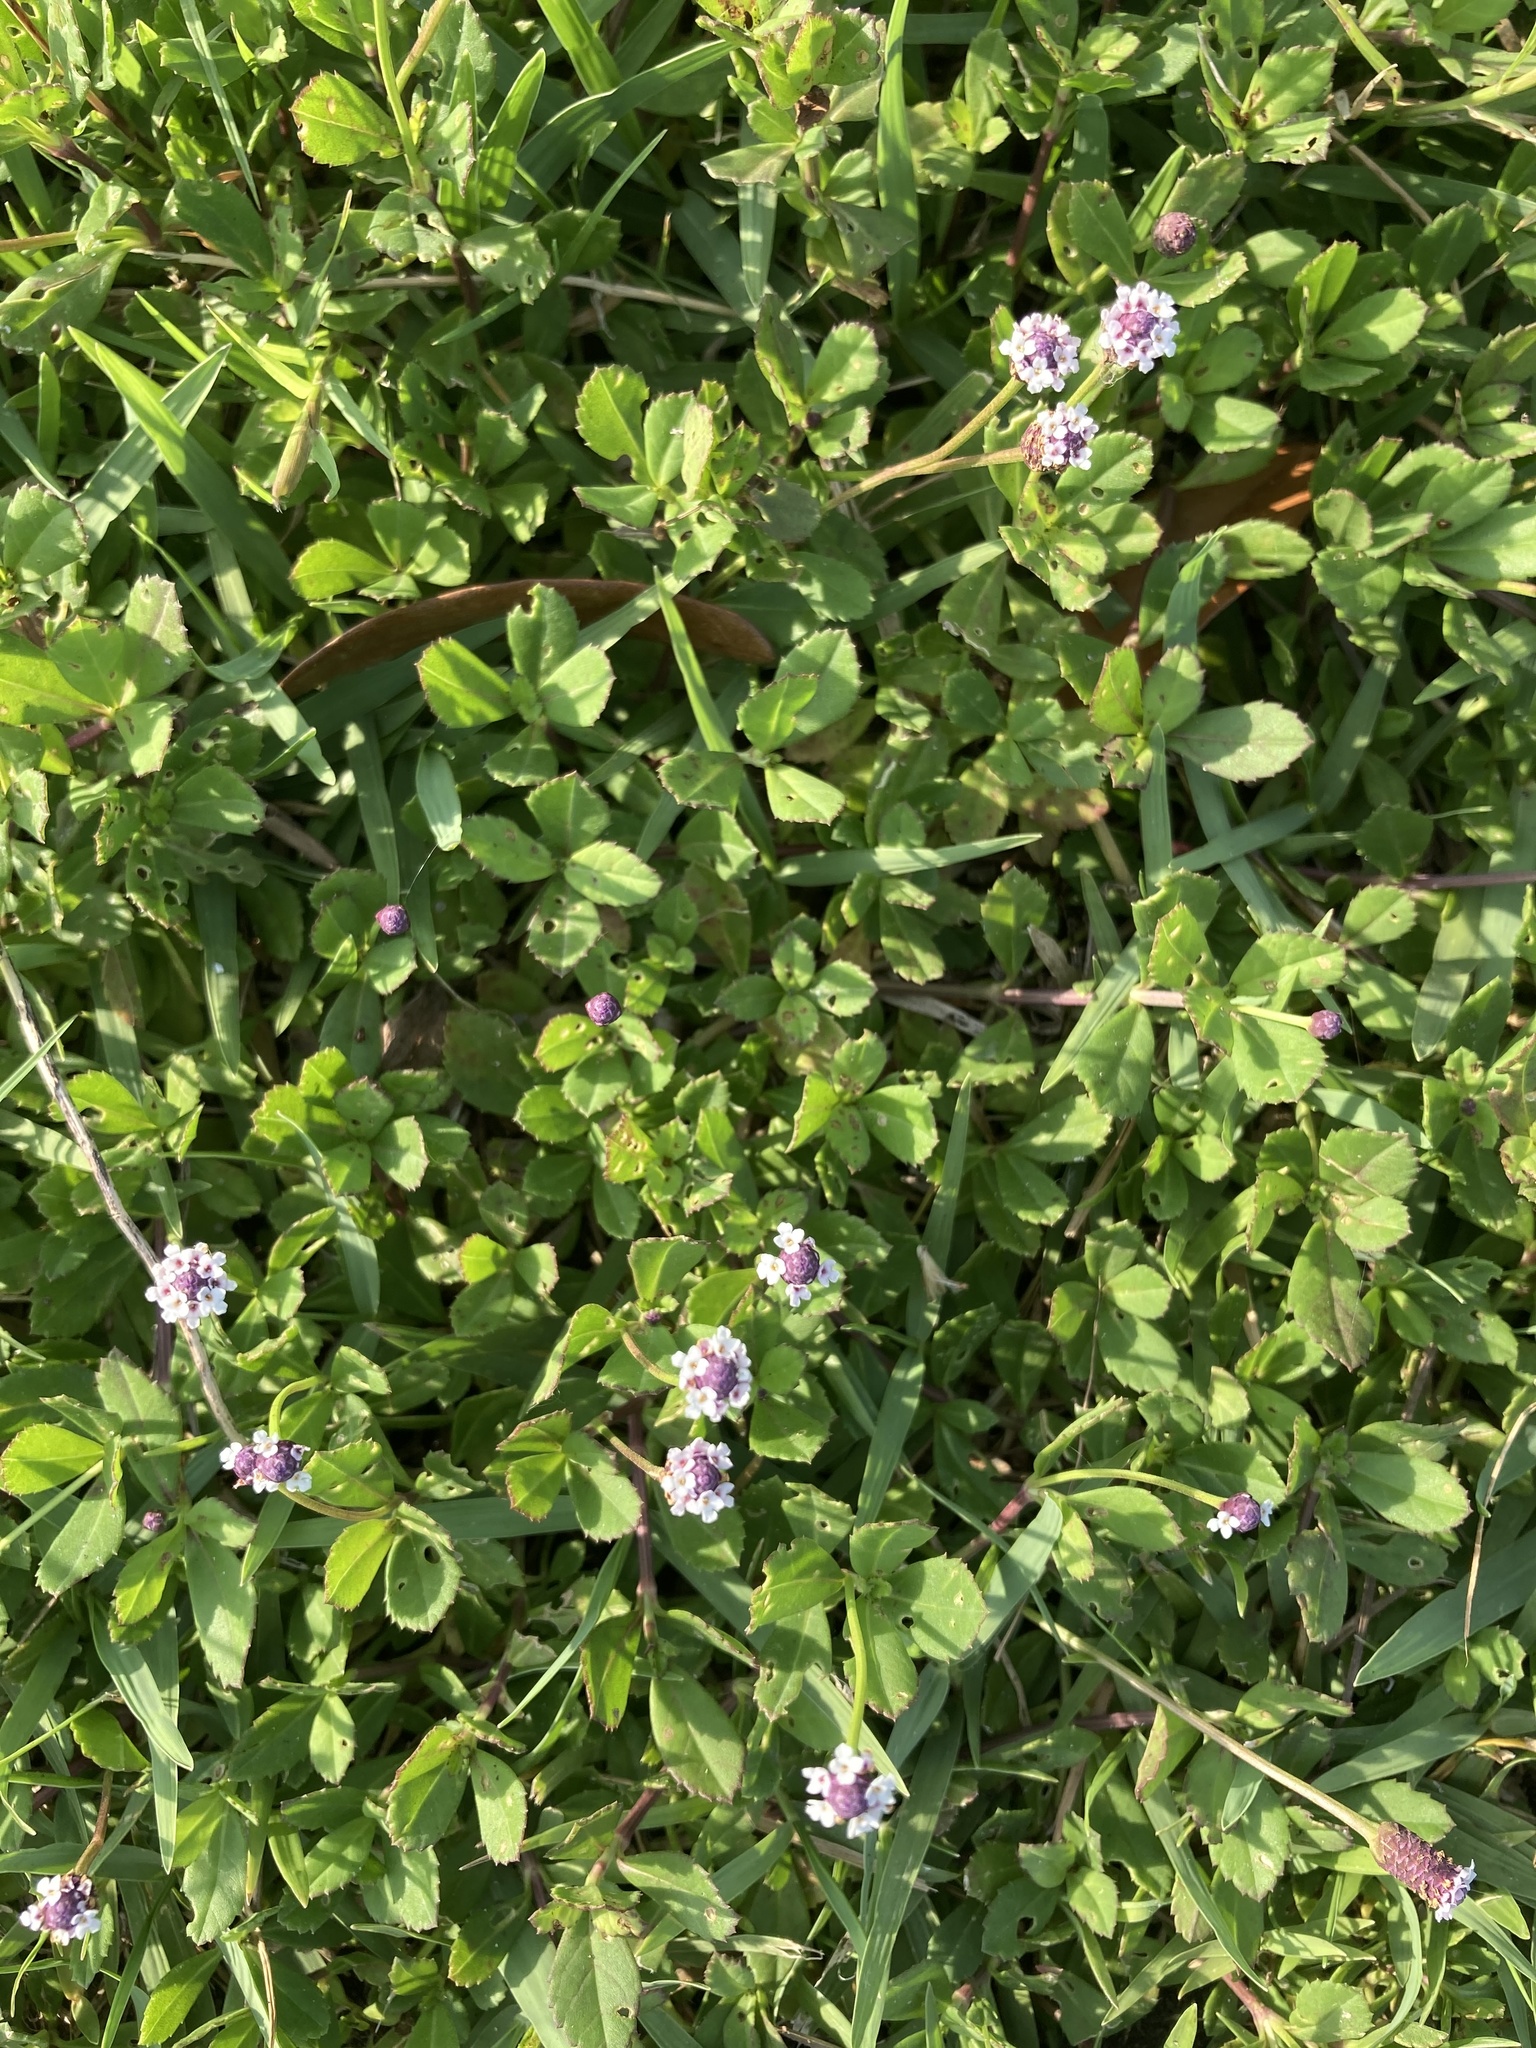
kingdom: Plantae
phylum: Tracheophyta
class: Magnoliopsida
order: Lamiales
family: Verbenaceae
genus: Phyla
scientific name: Phyla nodiflora
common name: Frogfruit
